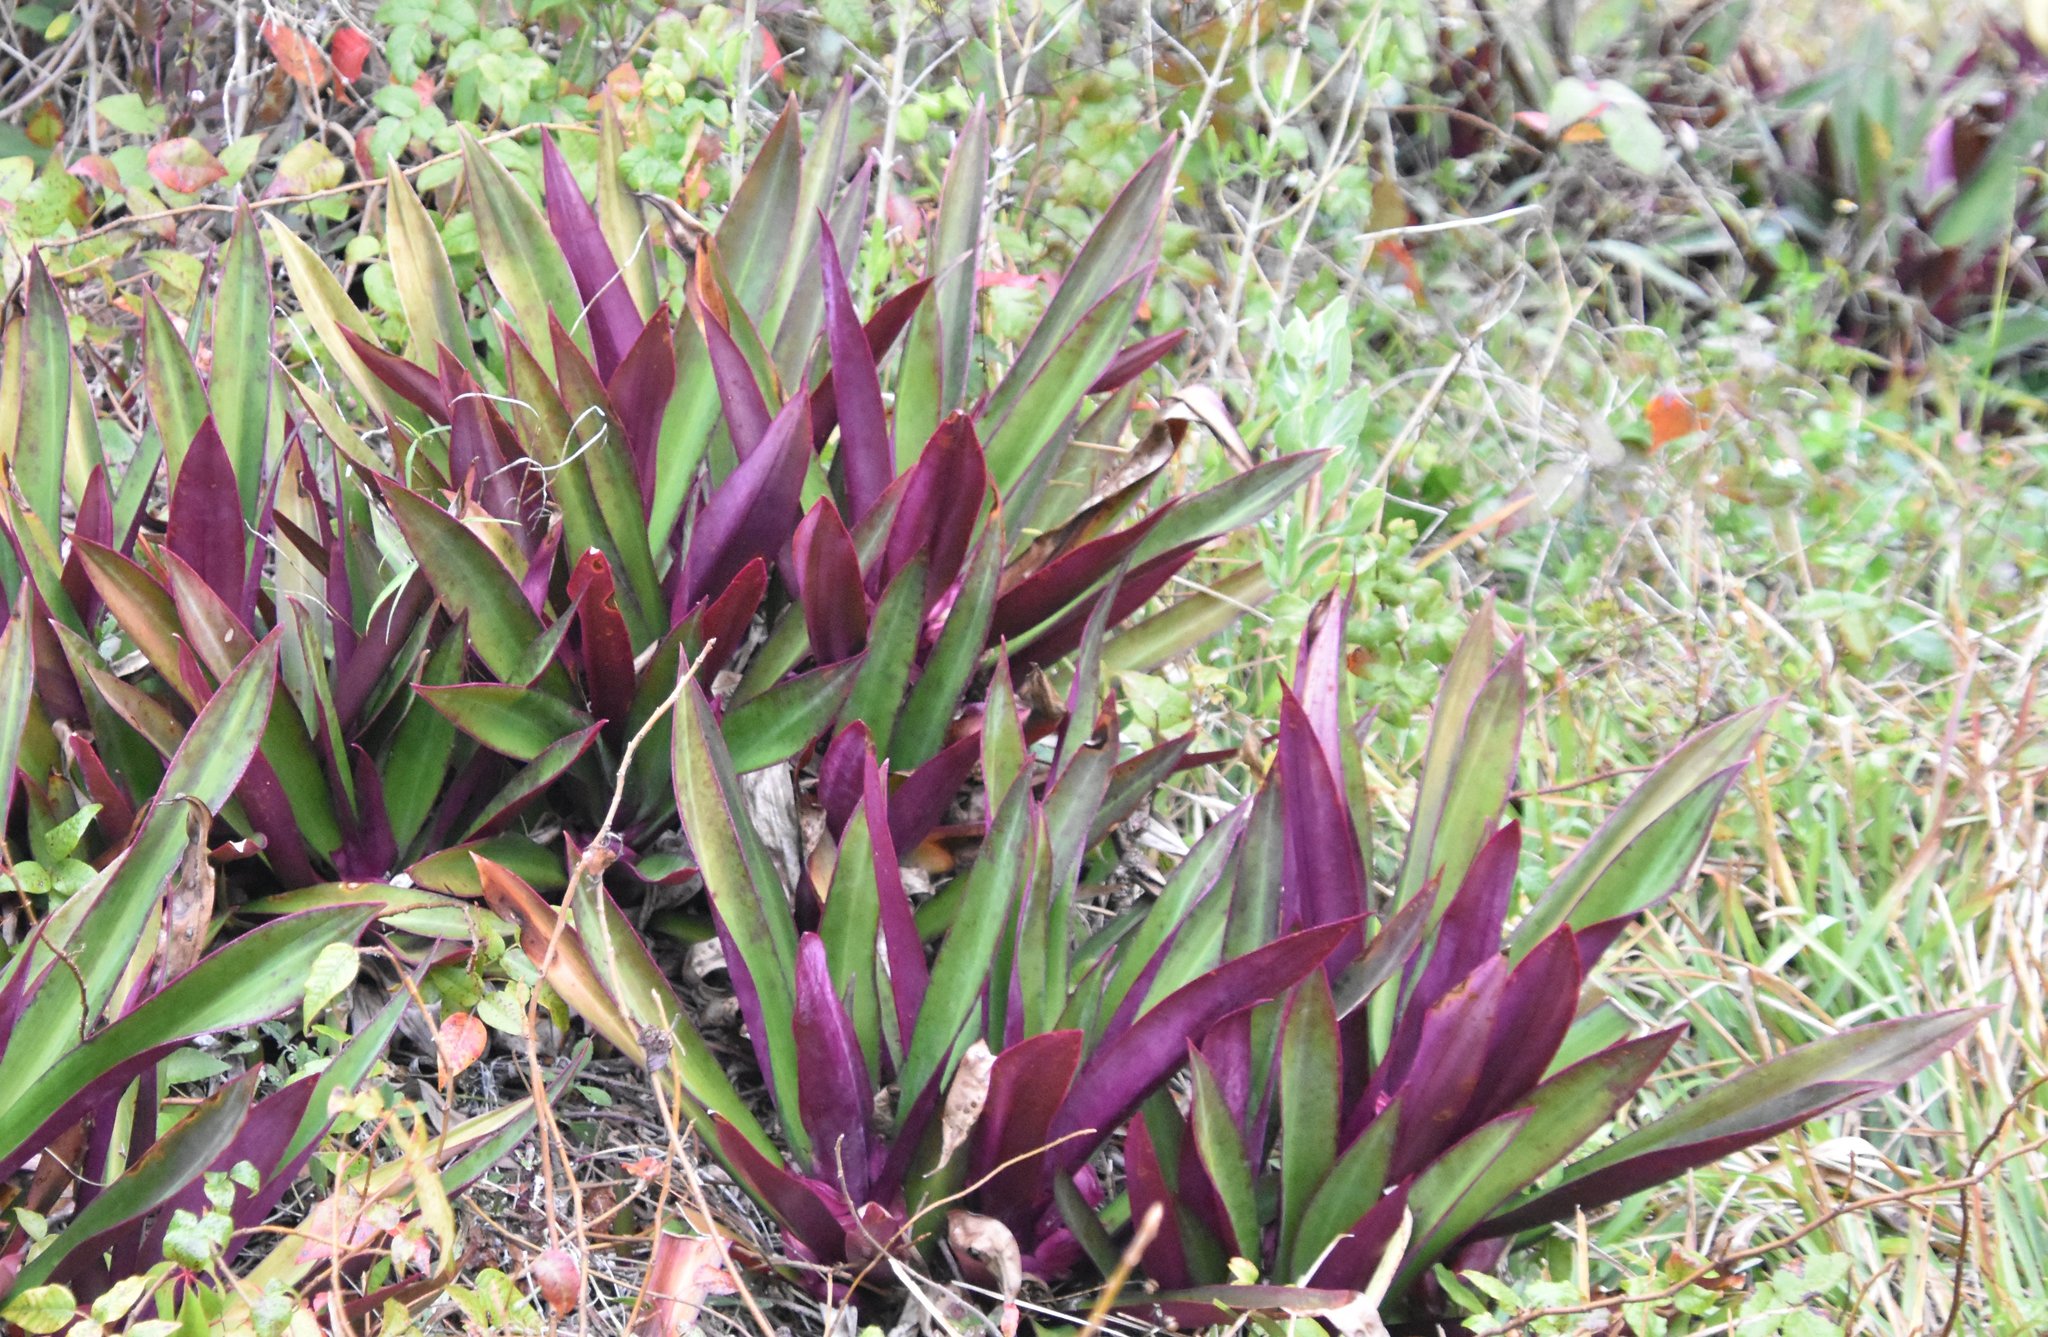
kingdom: Plantae
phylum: Tracheophyta
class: Liliopsida
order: Commelinales
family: Commelinaceae
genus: Tradescantia
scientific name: Tradescantia spathacea
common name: Boatlily
